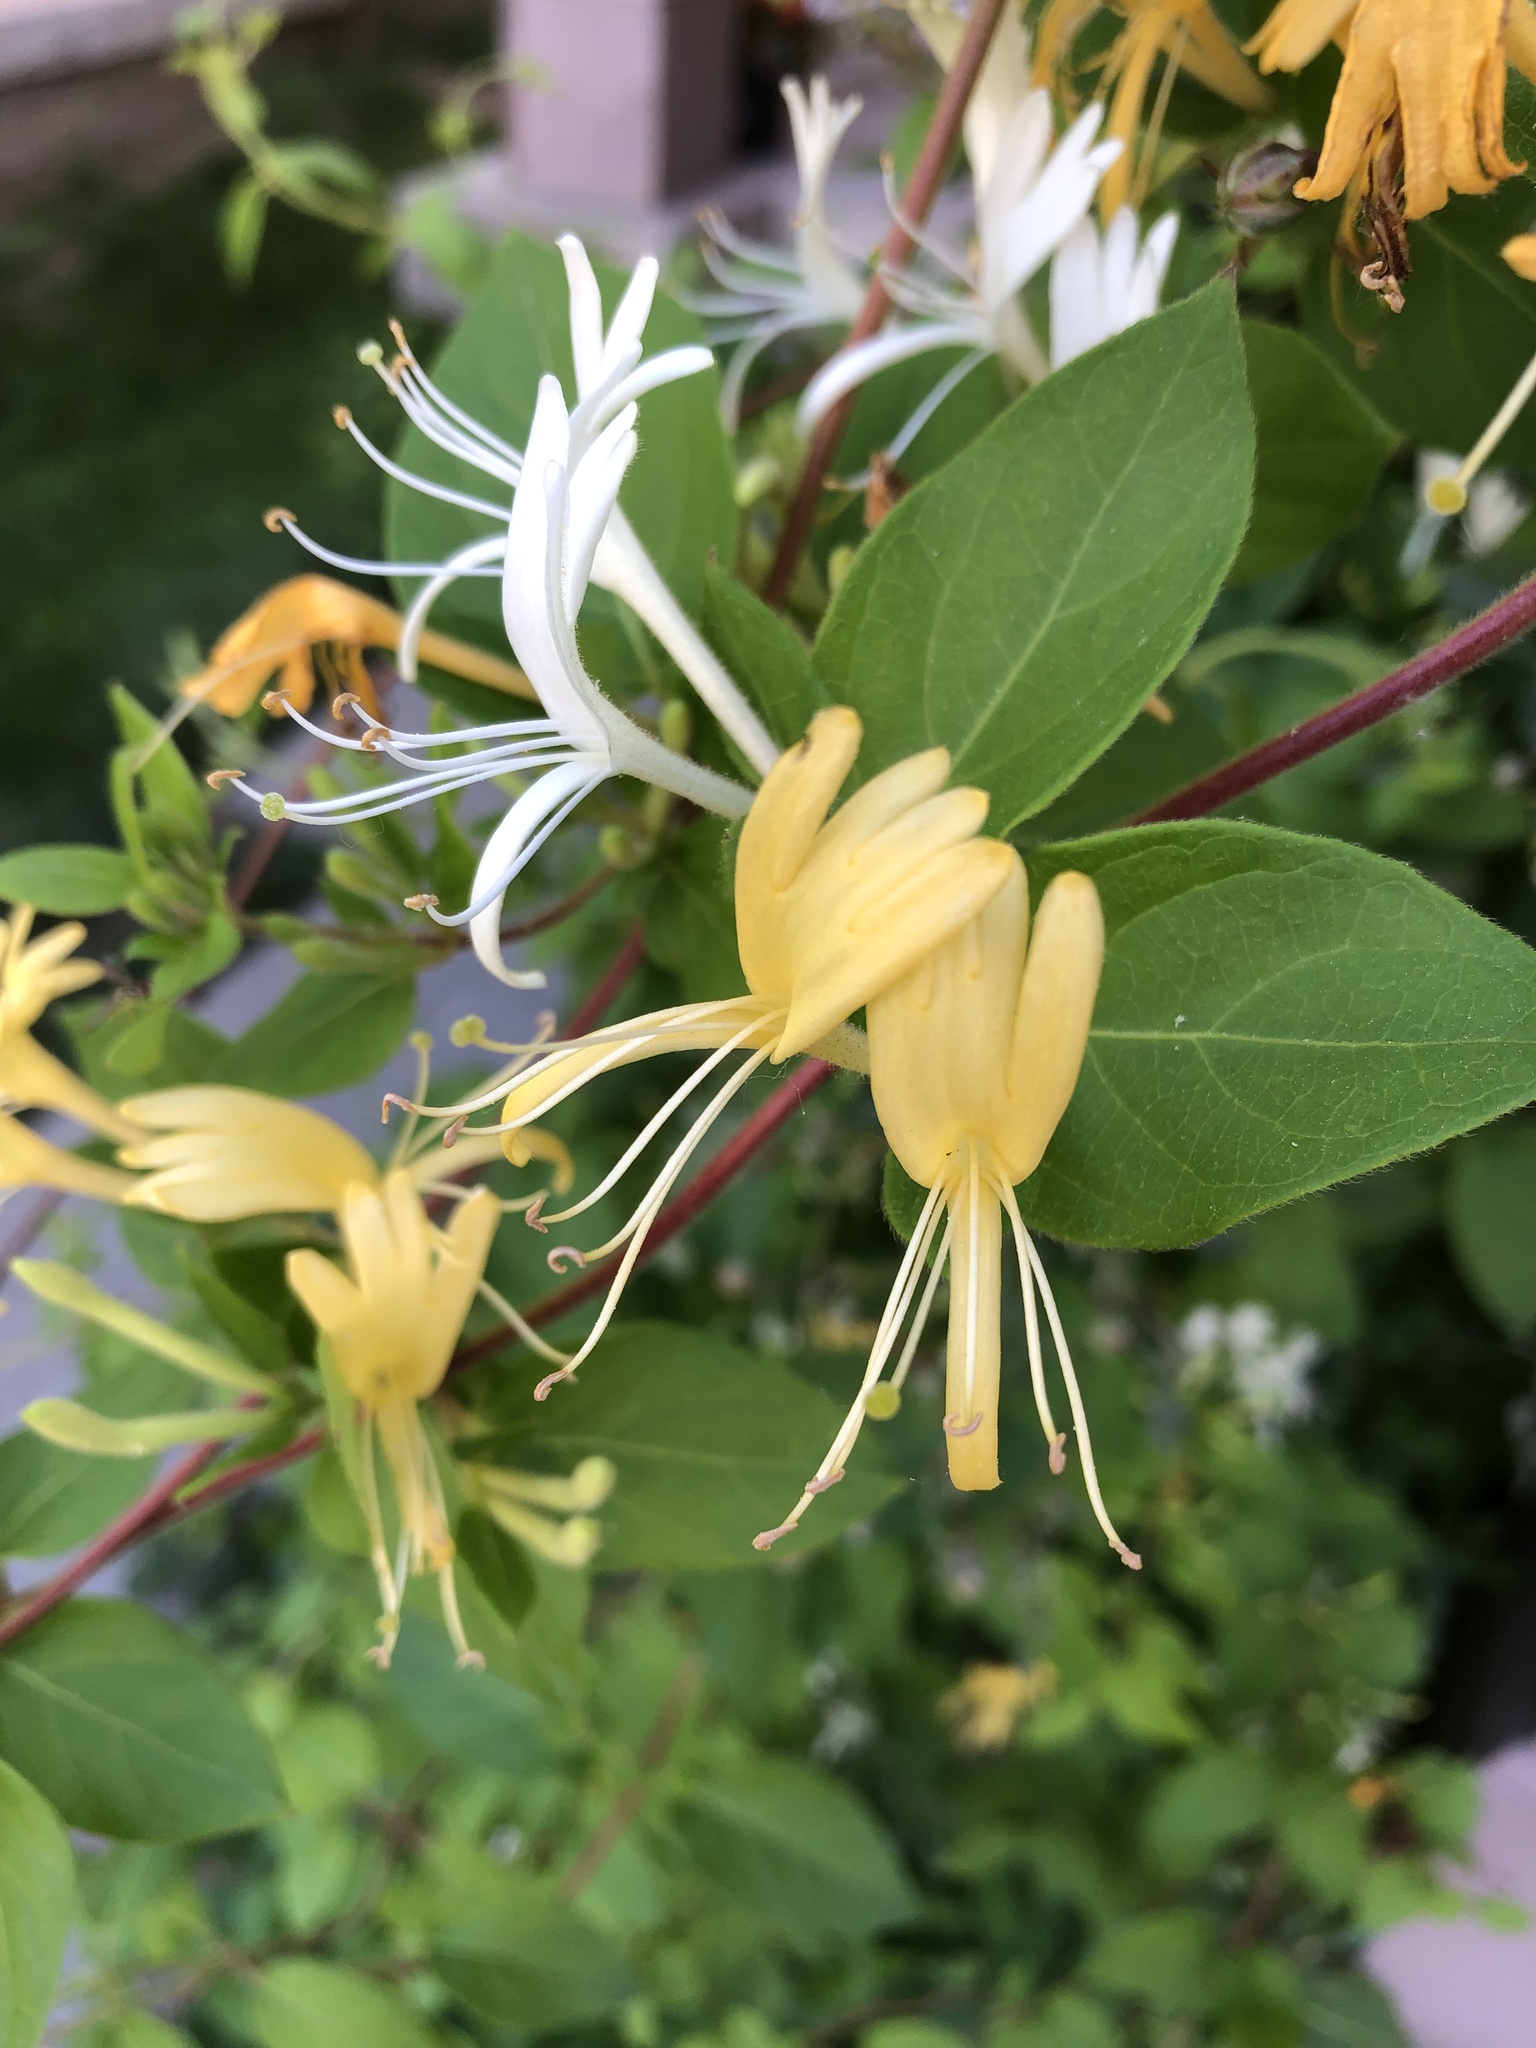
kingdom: Plantae
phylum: Tracheophyta
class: Magnoliopsida
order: Dipsacales
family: Caprifoliaceae
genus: Lonicera
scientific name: Lonicera japonica
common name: Japanese honeysuckle
